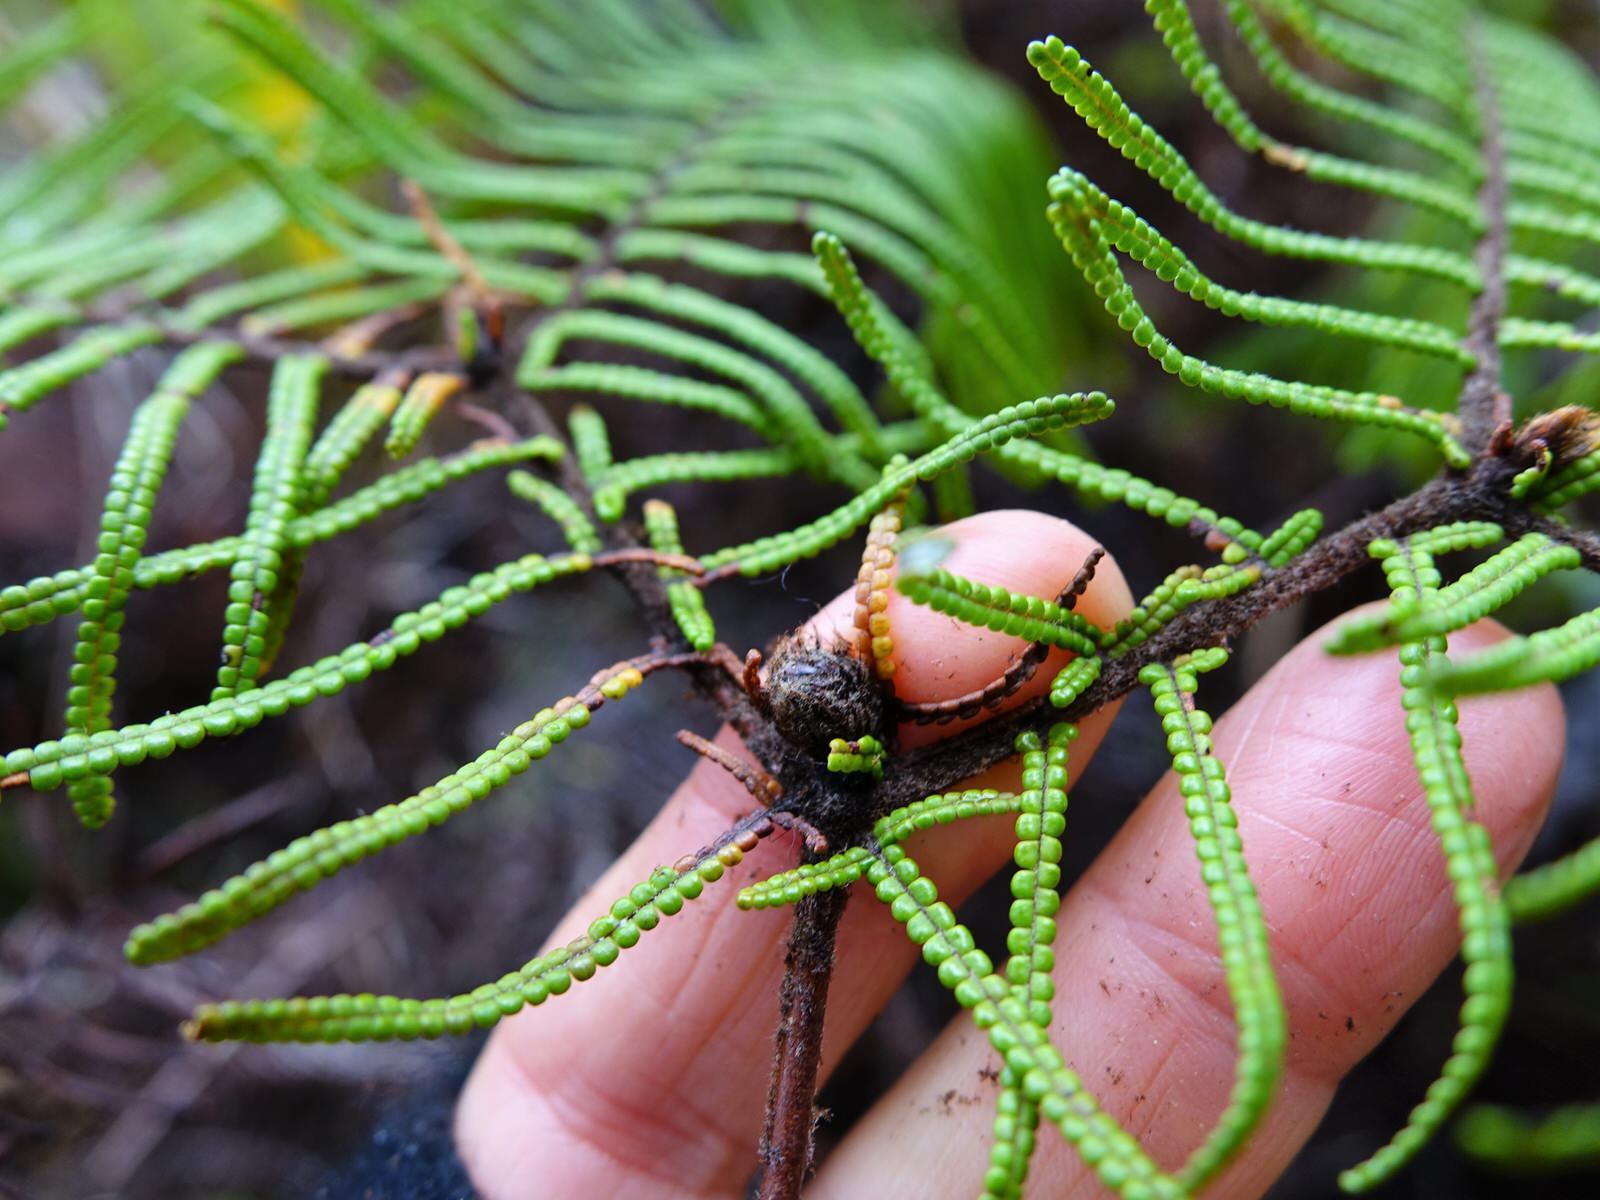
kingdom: Plantae
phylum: Tracheophyta
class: Polypodiopsida
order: Gleicheniales
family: Gleicheniaceae
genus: Gleichenia
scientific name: Gleichenia dicarpa
